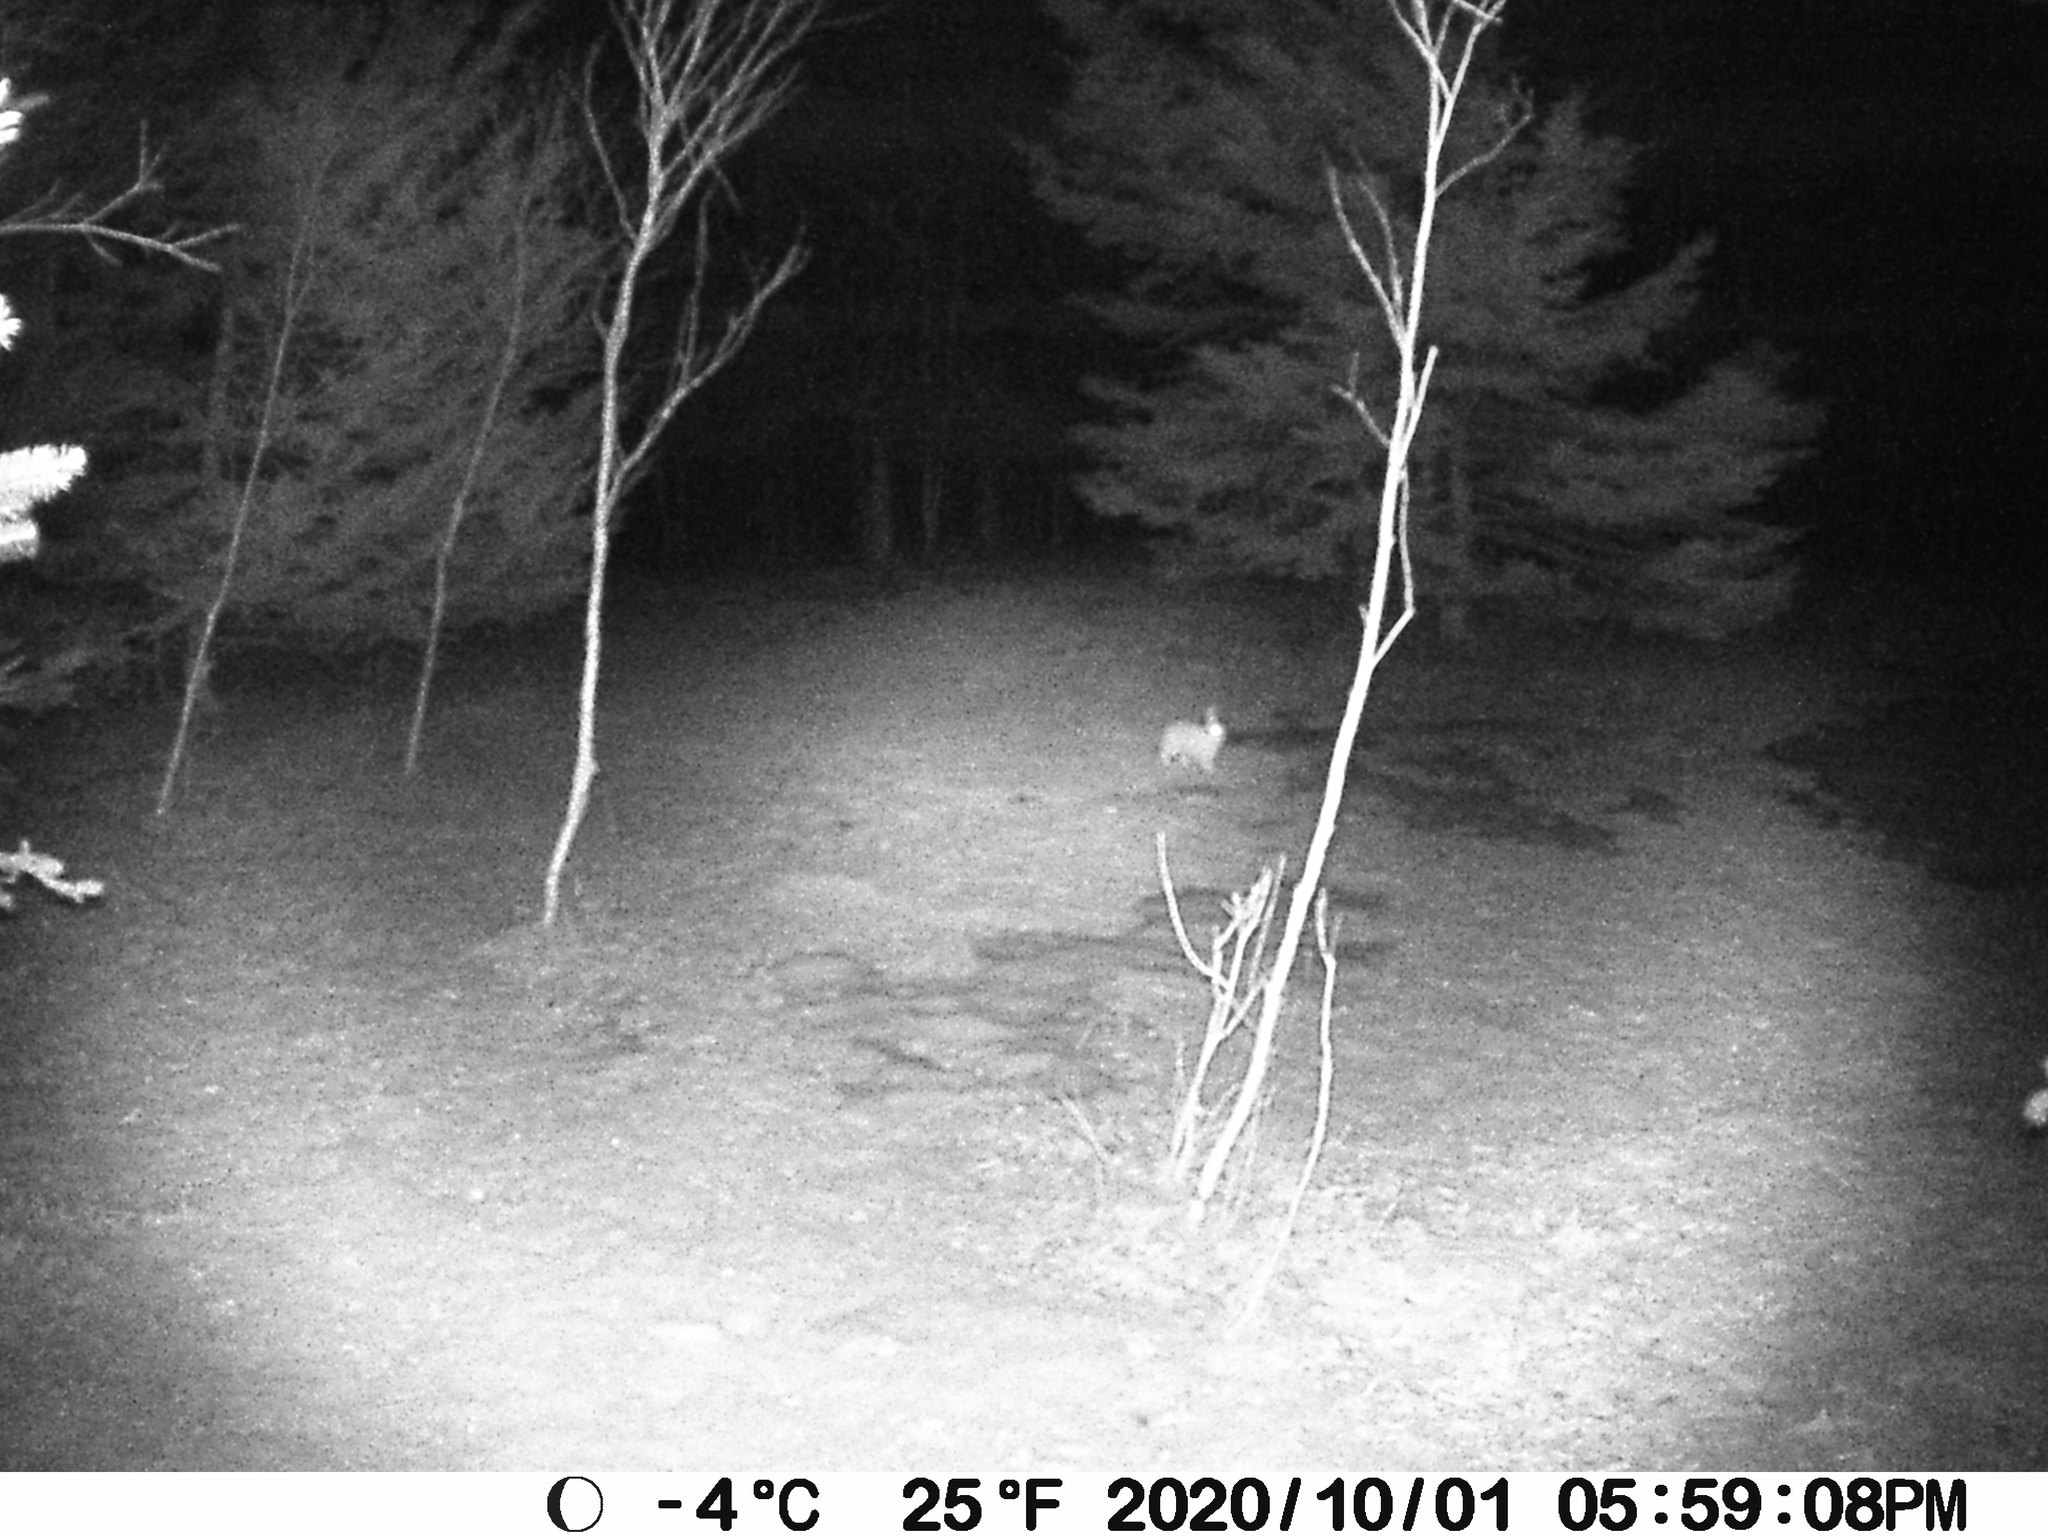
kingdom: Animalia
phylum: Chordata
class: Mammalia
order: Lagomorpha
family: Leporidae
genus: Lepus
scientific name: Lepus americanus
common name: Snowshoe hare
